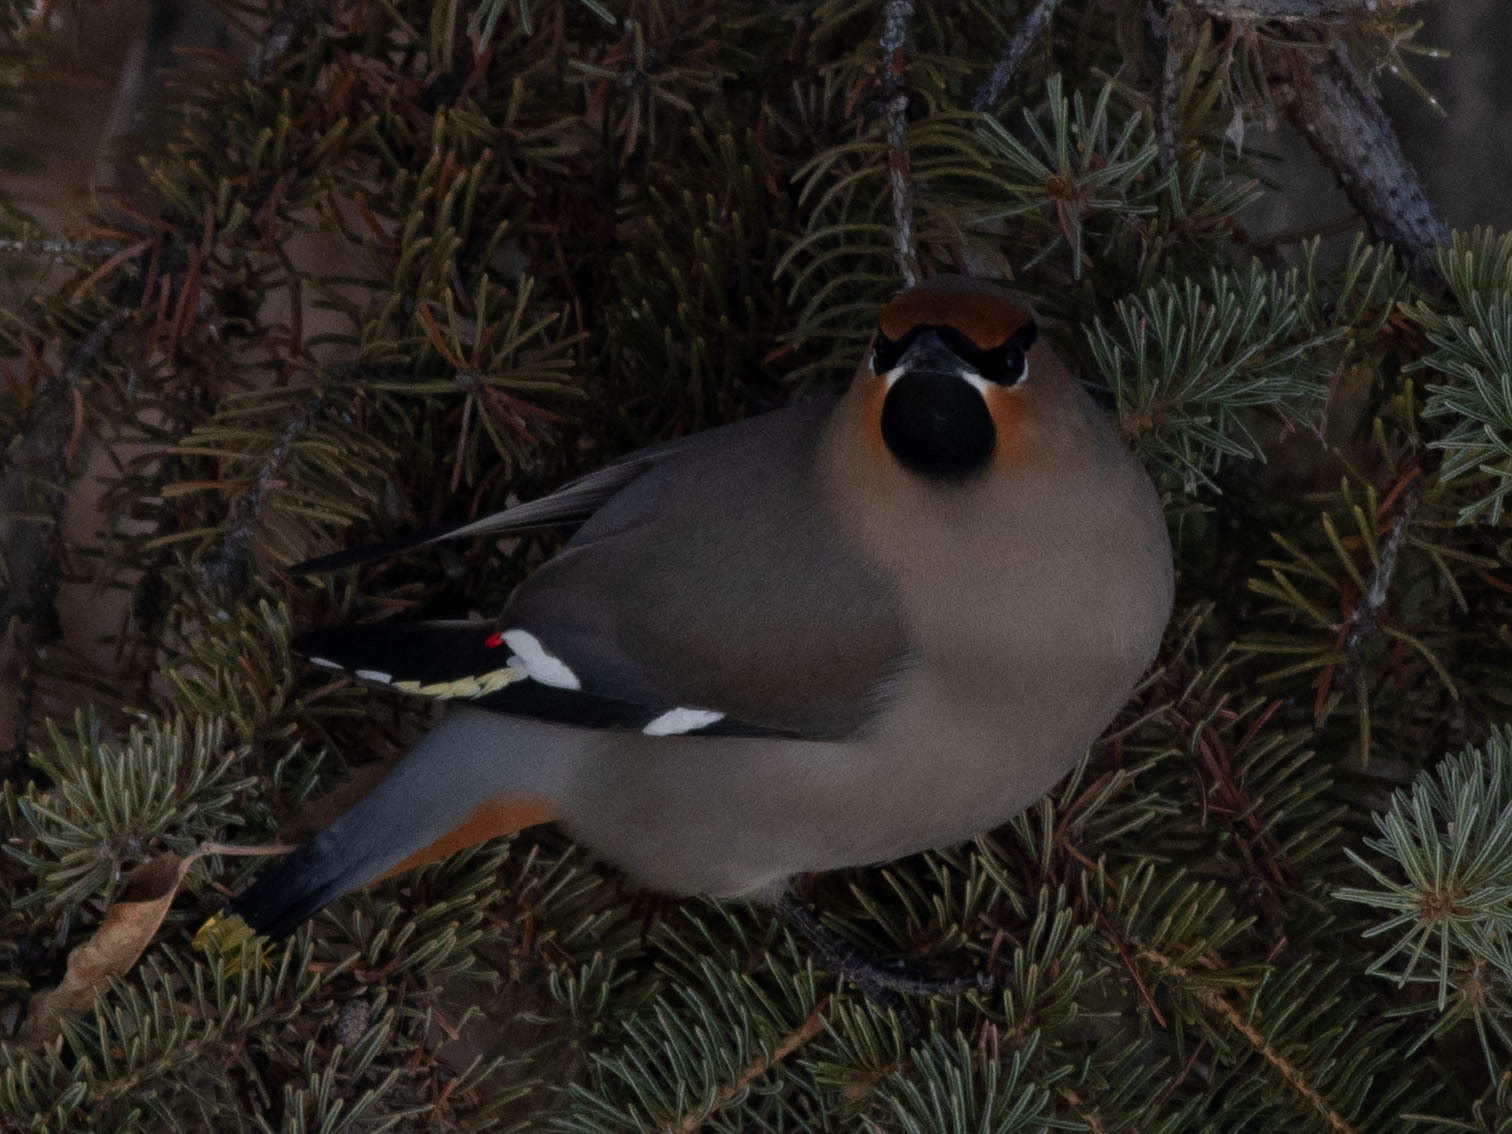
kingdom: Animalia
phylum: Chordata
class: Aves
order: Passeriformes
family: Bombycillidae
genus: Bombycilla
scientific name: Bombycilla garrulus
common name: Bohemian waxwing
